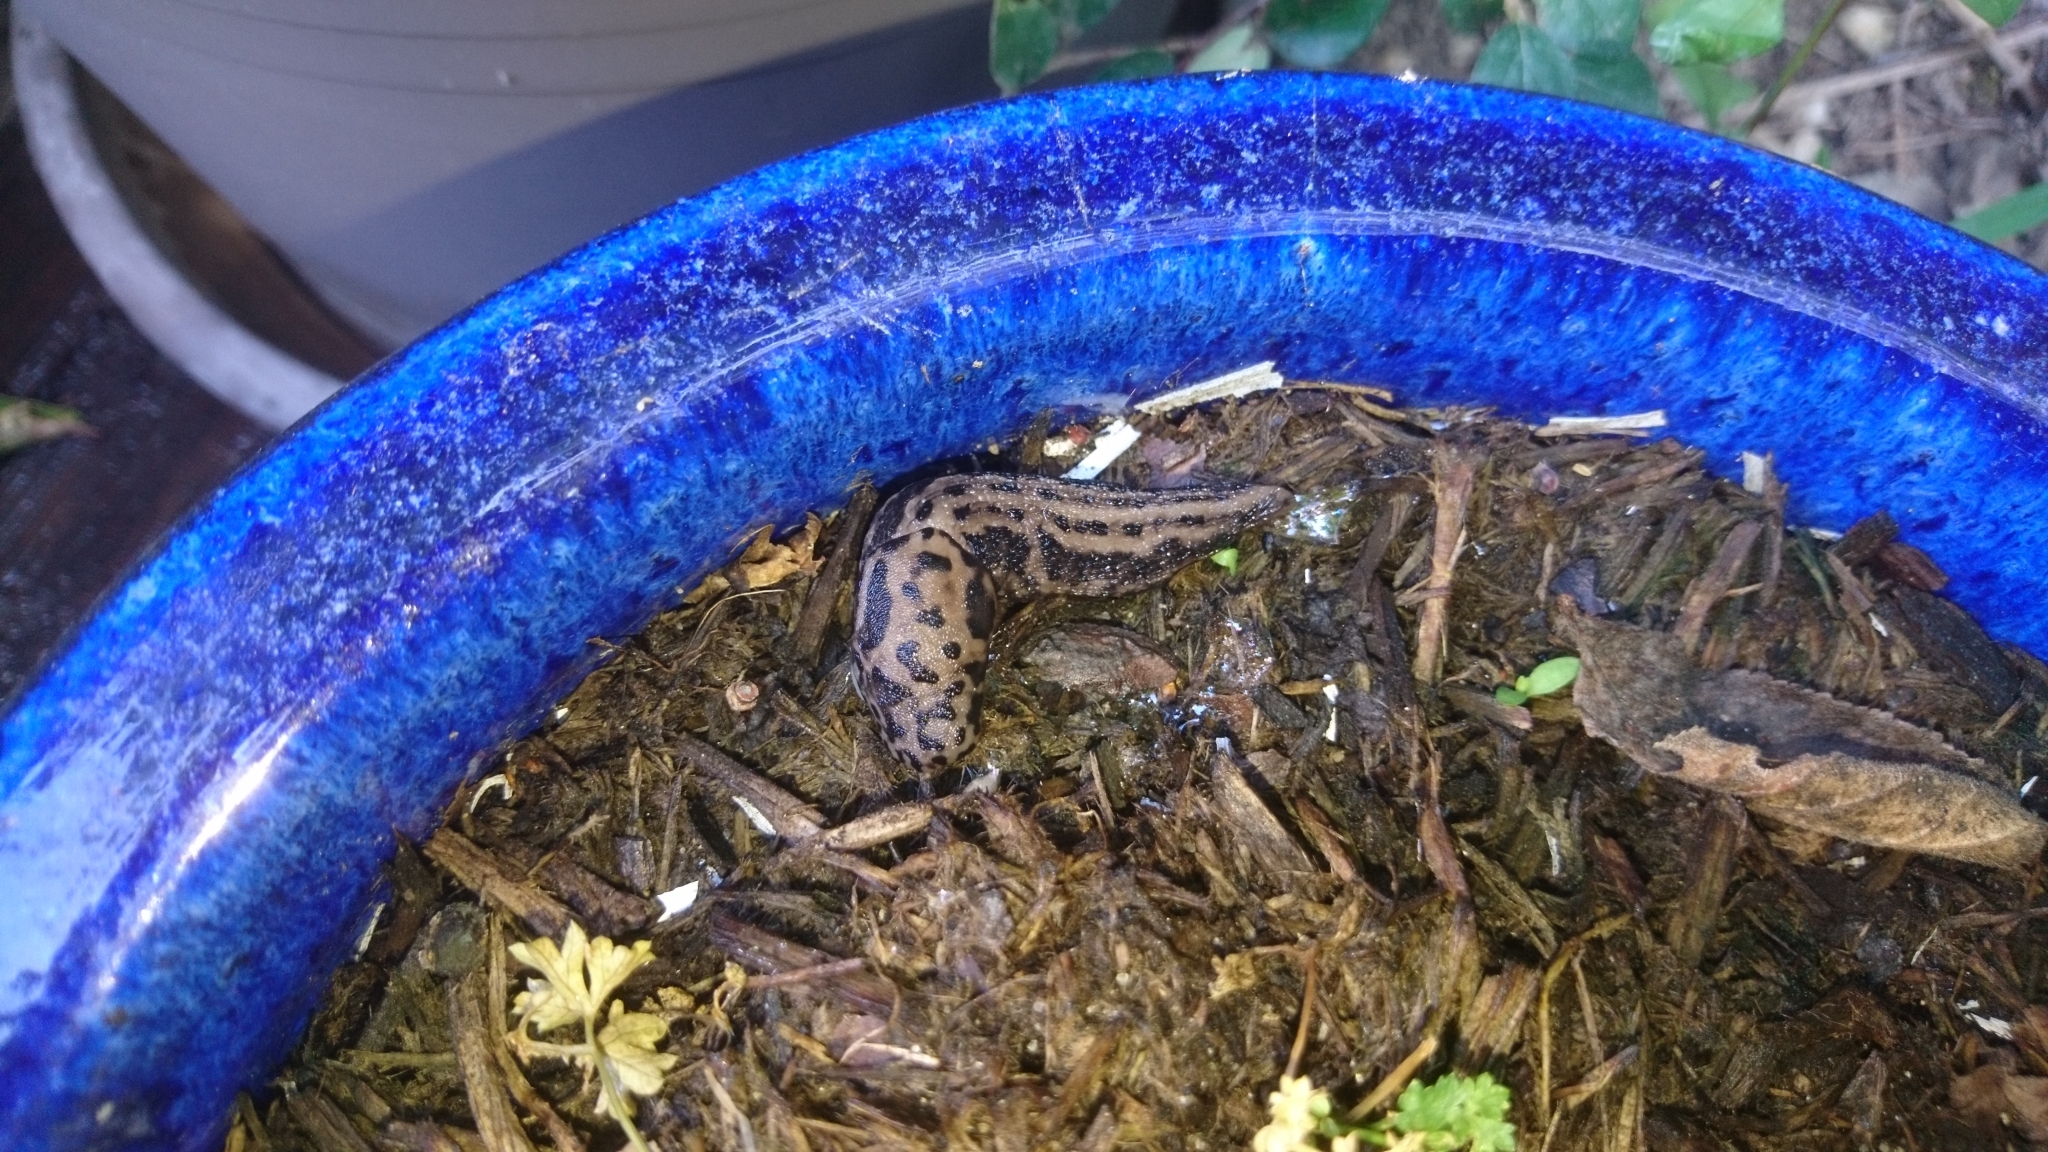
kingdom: Animalia
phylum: Mollusca
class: Gastropoda
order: Stylommatophora
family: Limacidae
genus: Limax
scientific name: Limax maximus
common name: Great grey slug
